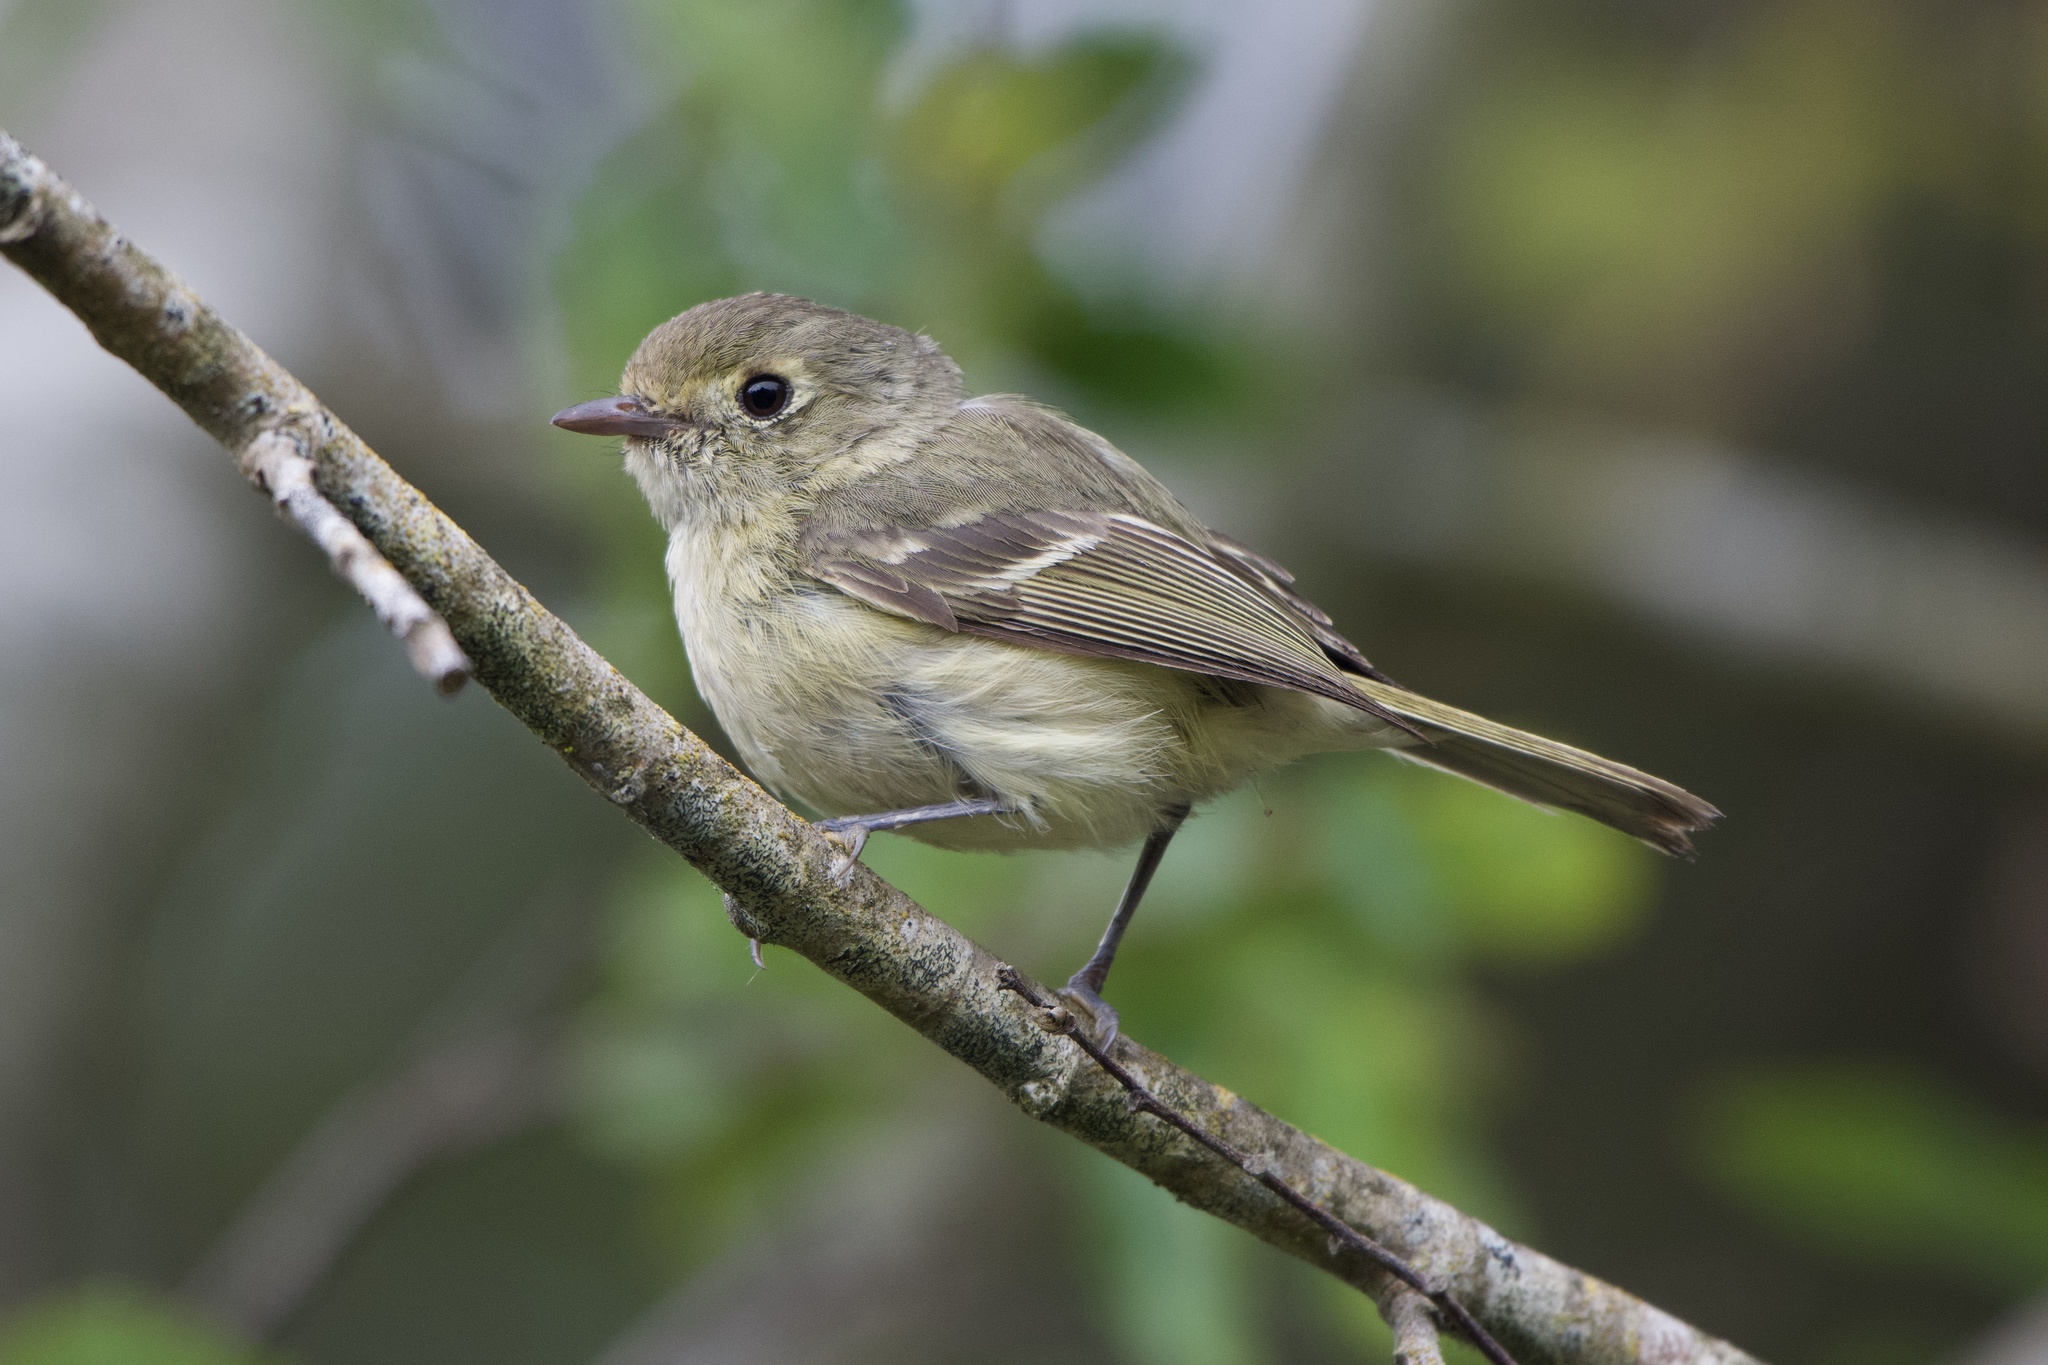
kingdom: Animalia
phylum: Chordata
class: Aves
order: Passeriformes
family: Vireonidae
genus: Vireo
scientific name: Vireo huttoni
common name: Hutton's vireo
